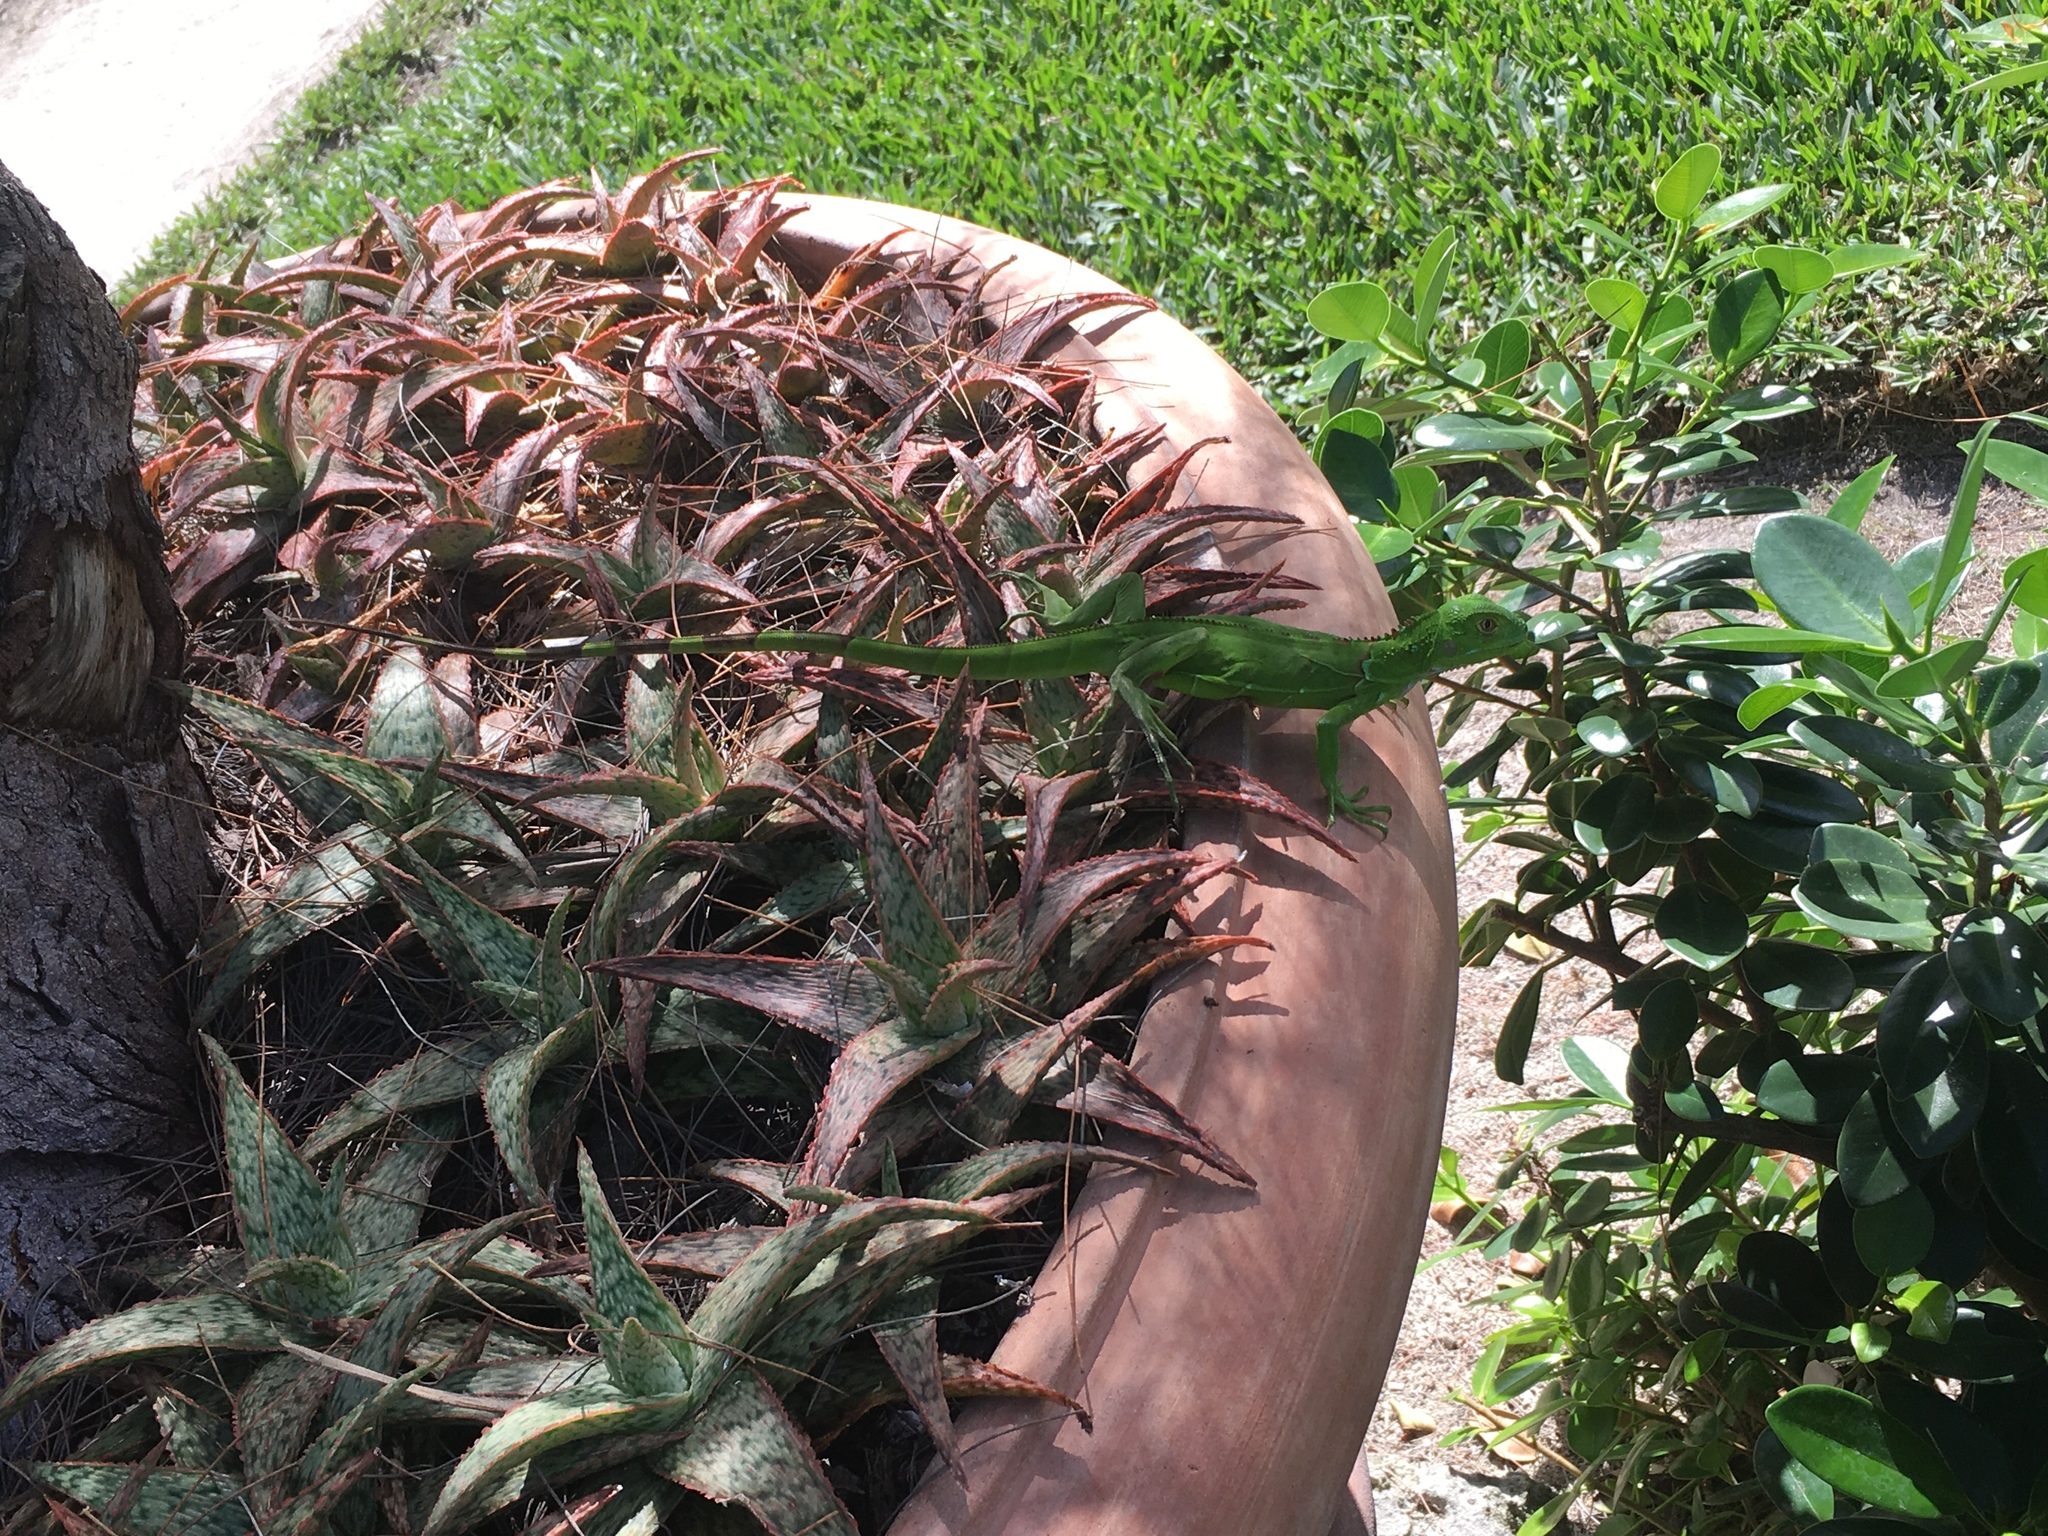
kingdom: Animalia
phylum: Chordata
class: Squamata
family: Iguanidae
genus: Iguana
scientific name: Iguana iguana
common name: Green iguana
